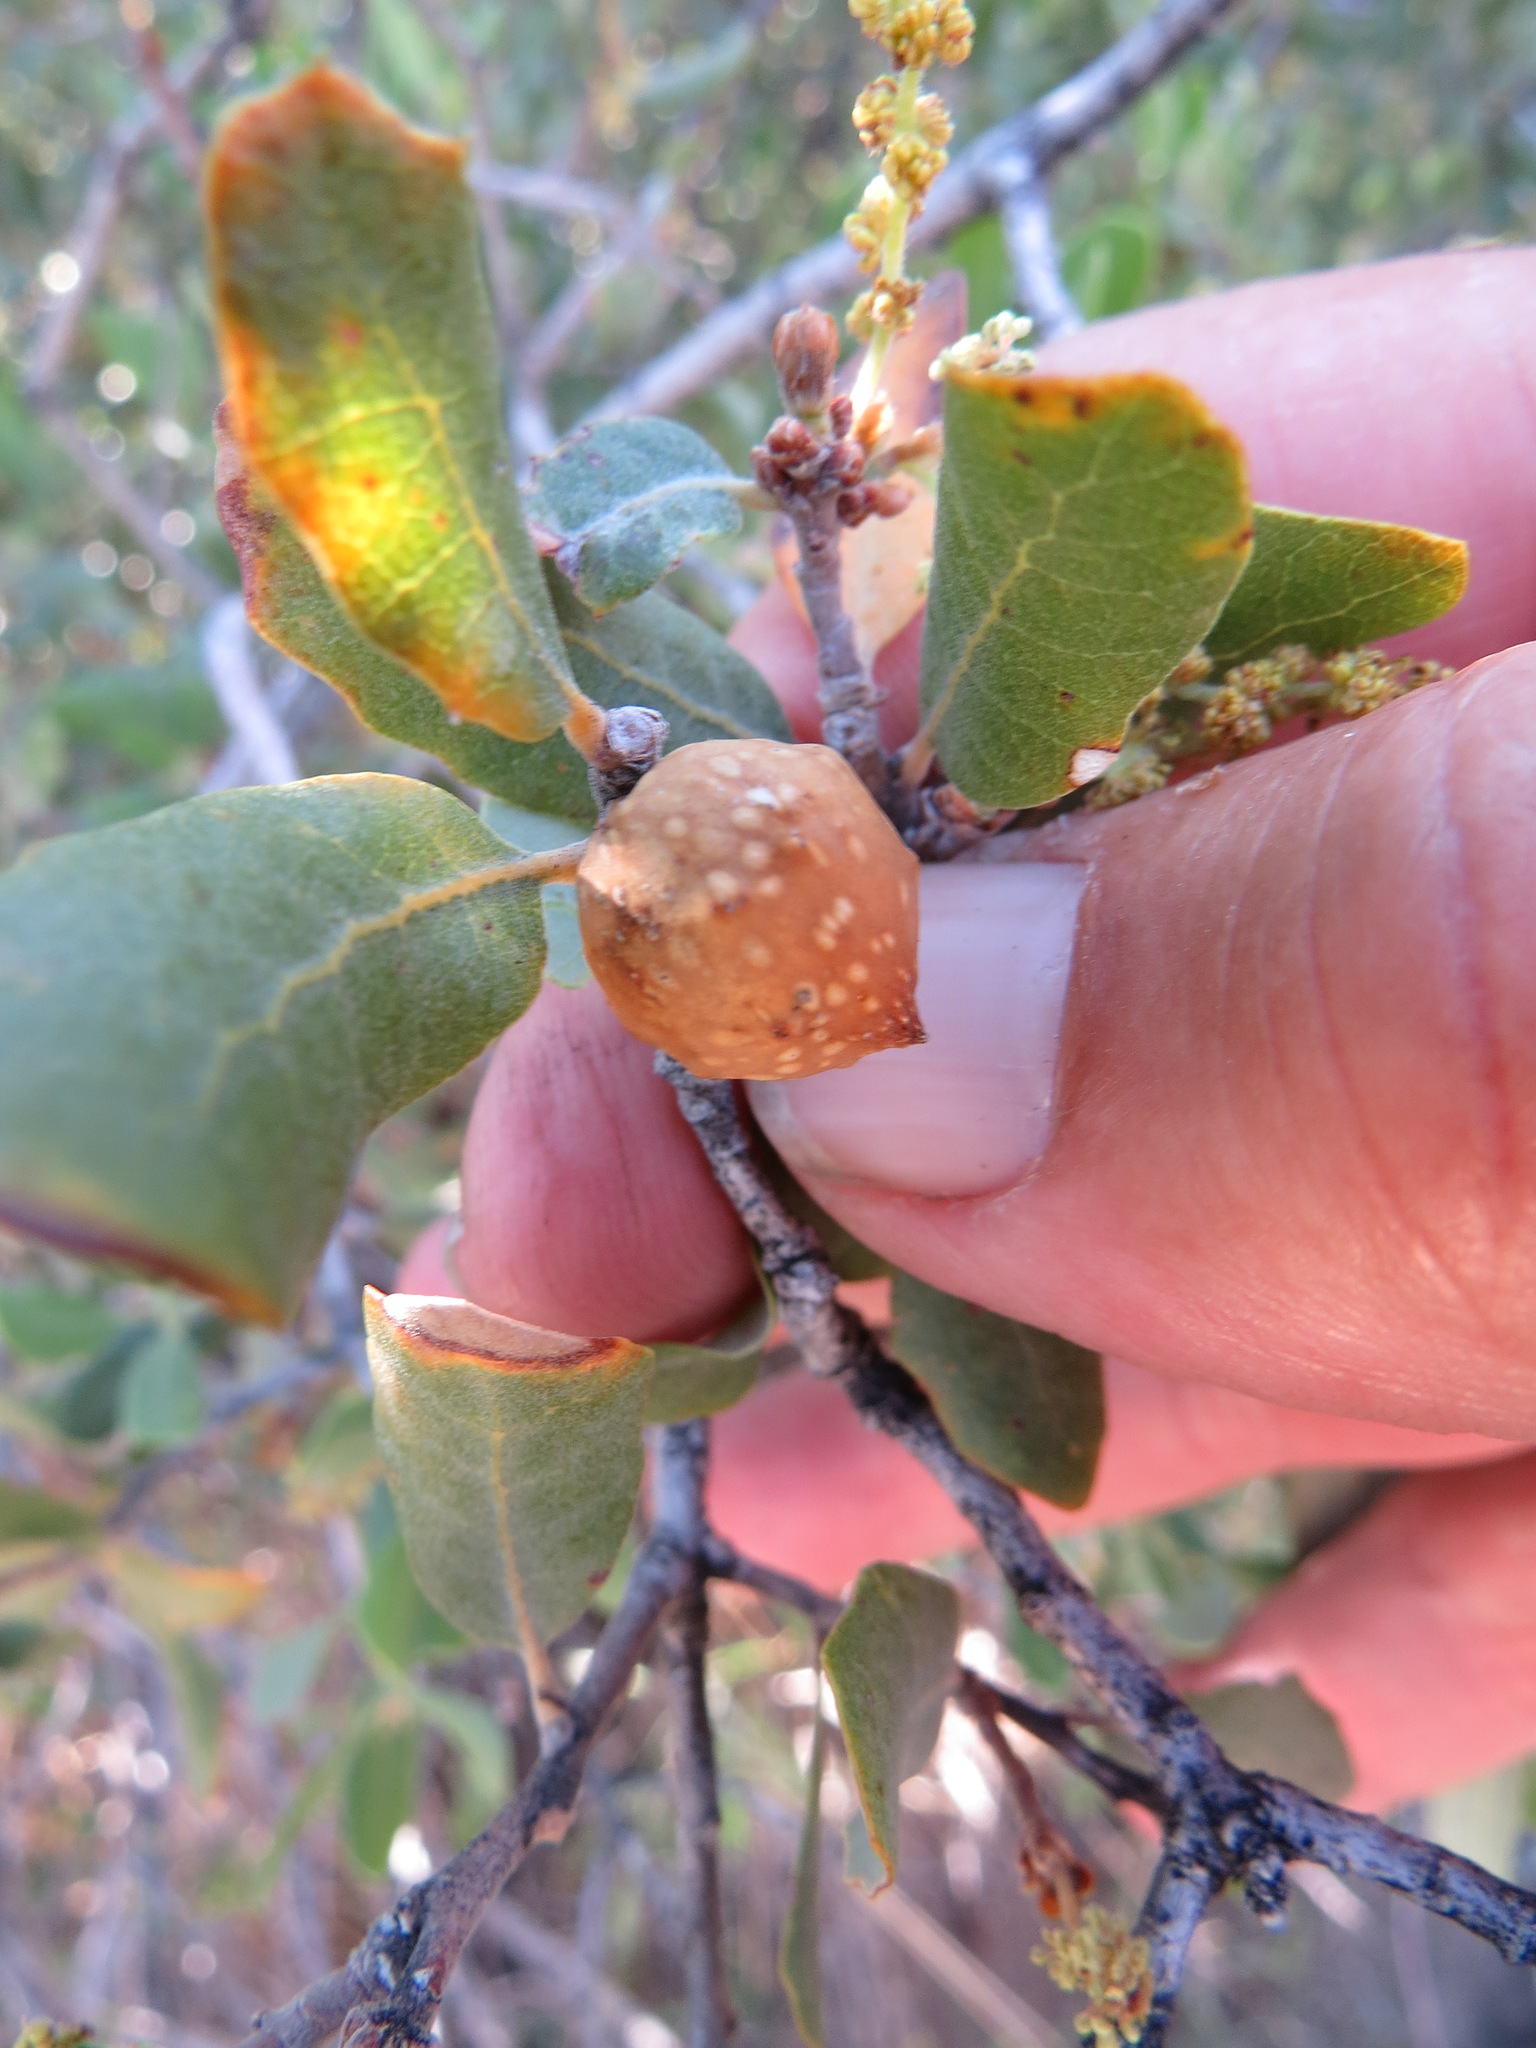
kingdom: Animalia
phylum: Arthropoda
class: Insecta
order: Hymenoptera
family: Cynipidae
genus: Burnettweldia
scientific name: Burnettweldia
